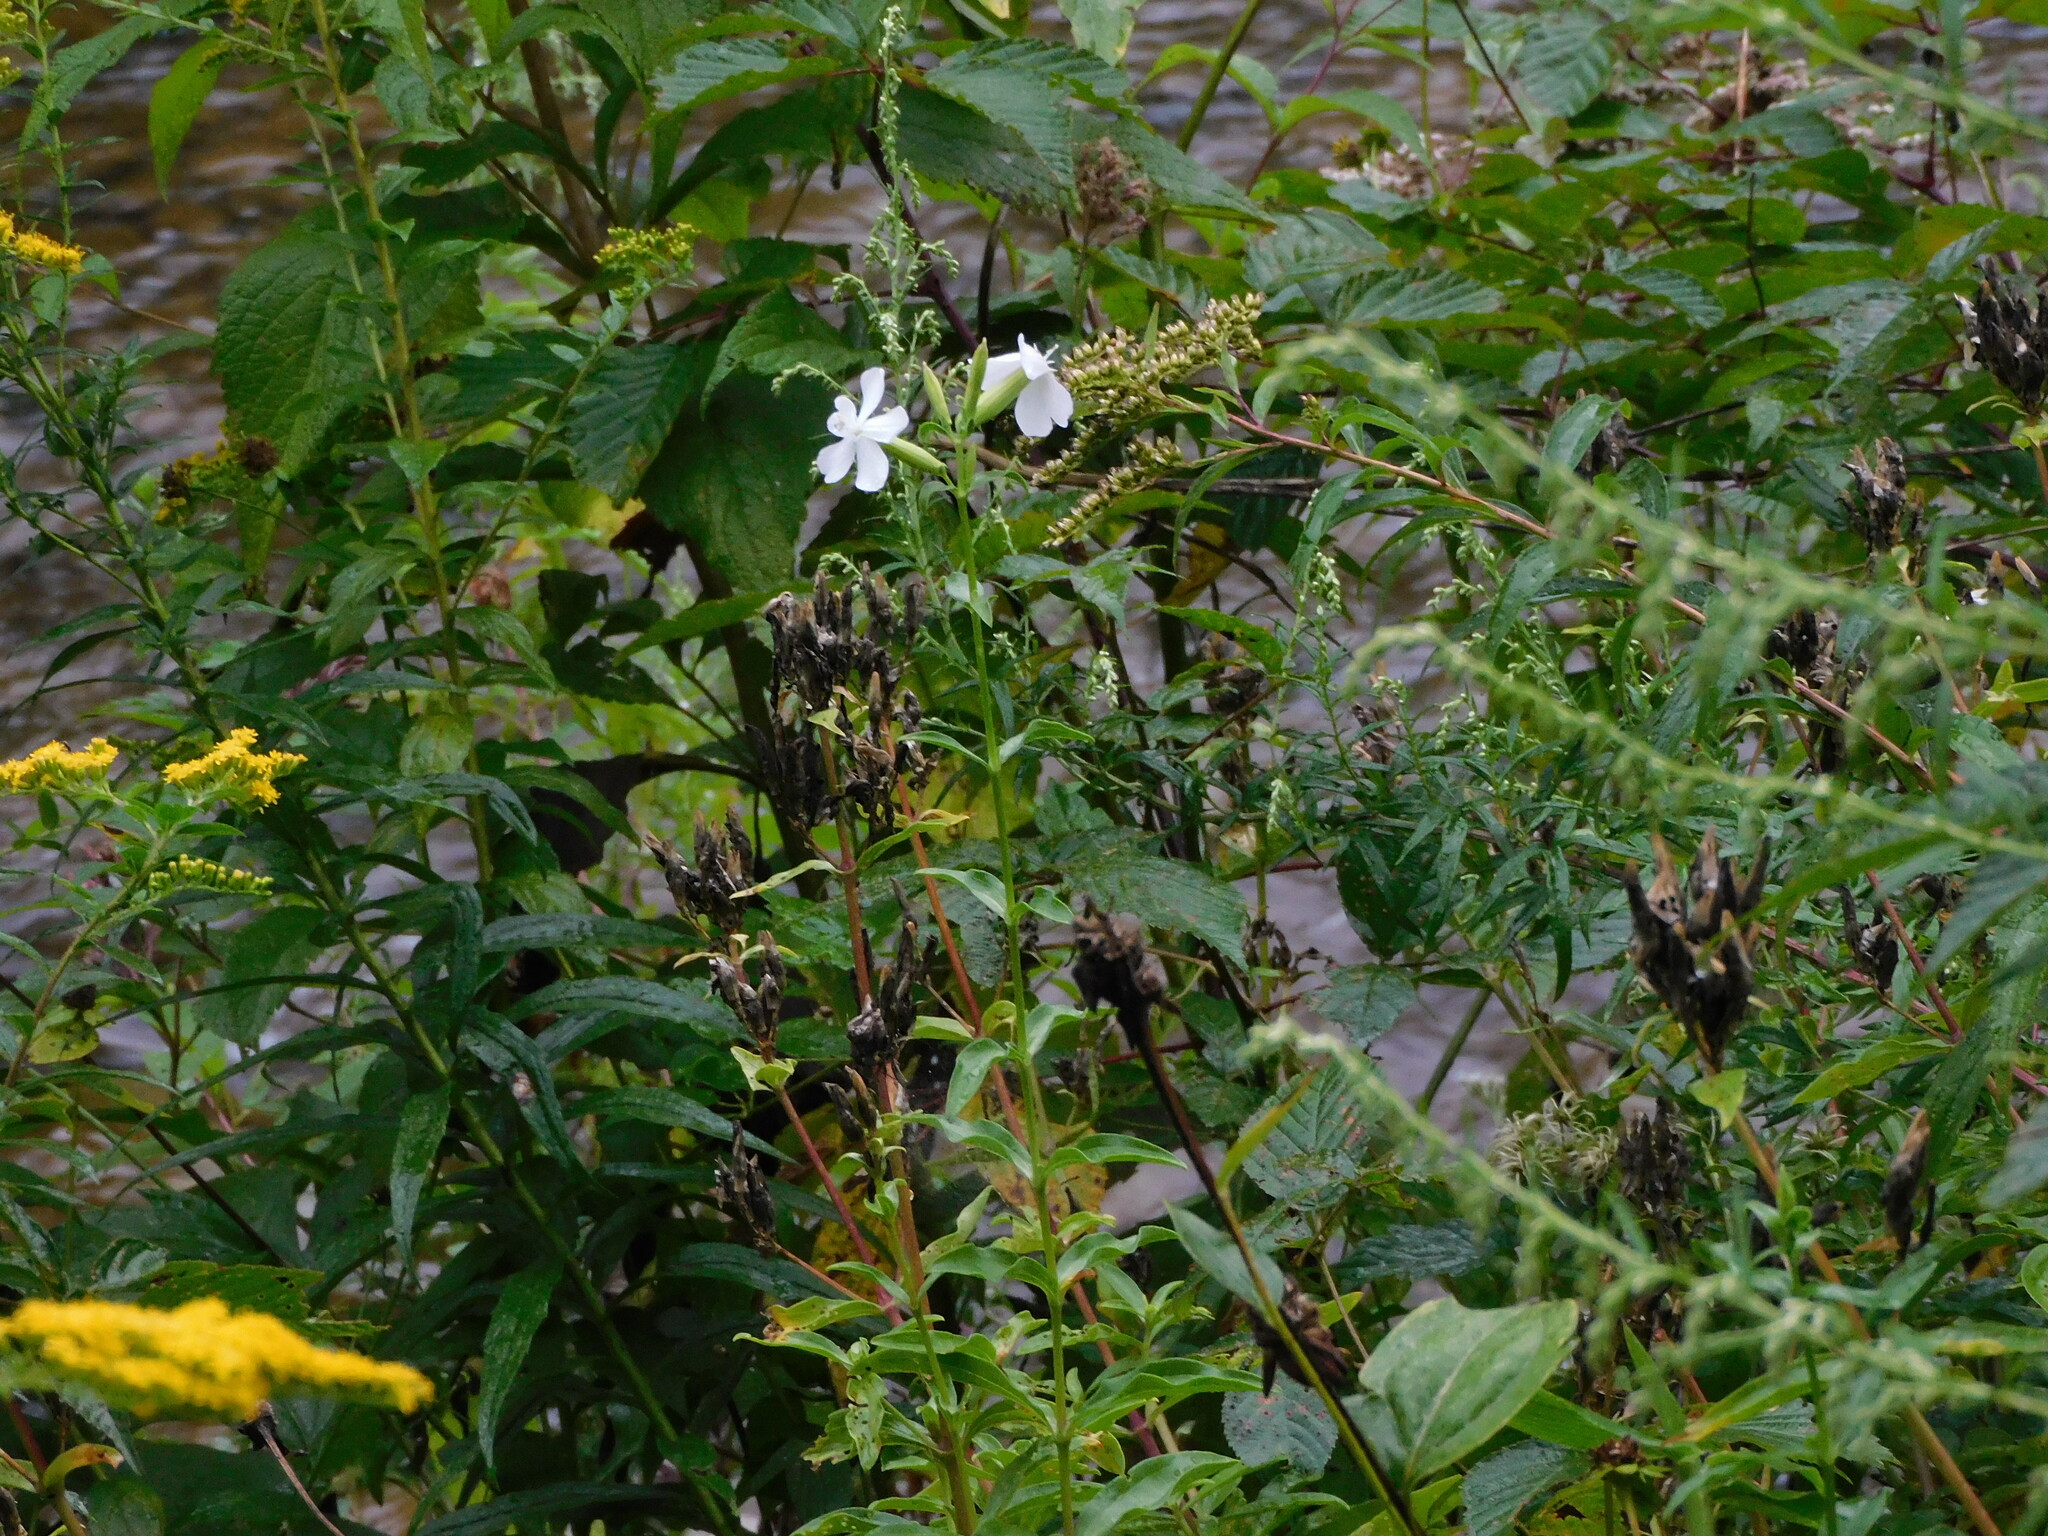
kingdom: Plantae
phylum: Tracheophyta
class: Magnoliopsida
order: Caryophyllales
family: Caryophyllaceae
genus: Saponaria
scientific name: Saponaria officinalis
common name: Soapwort
